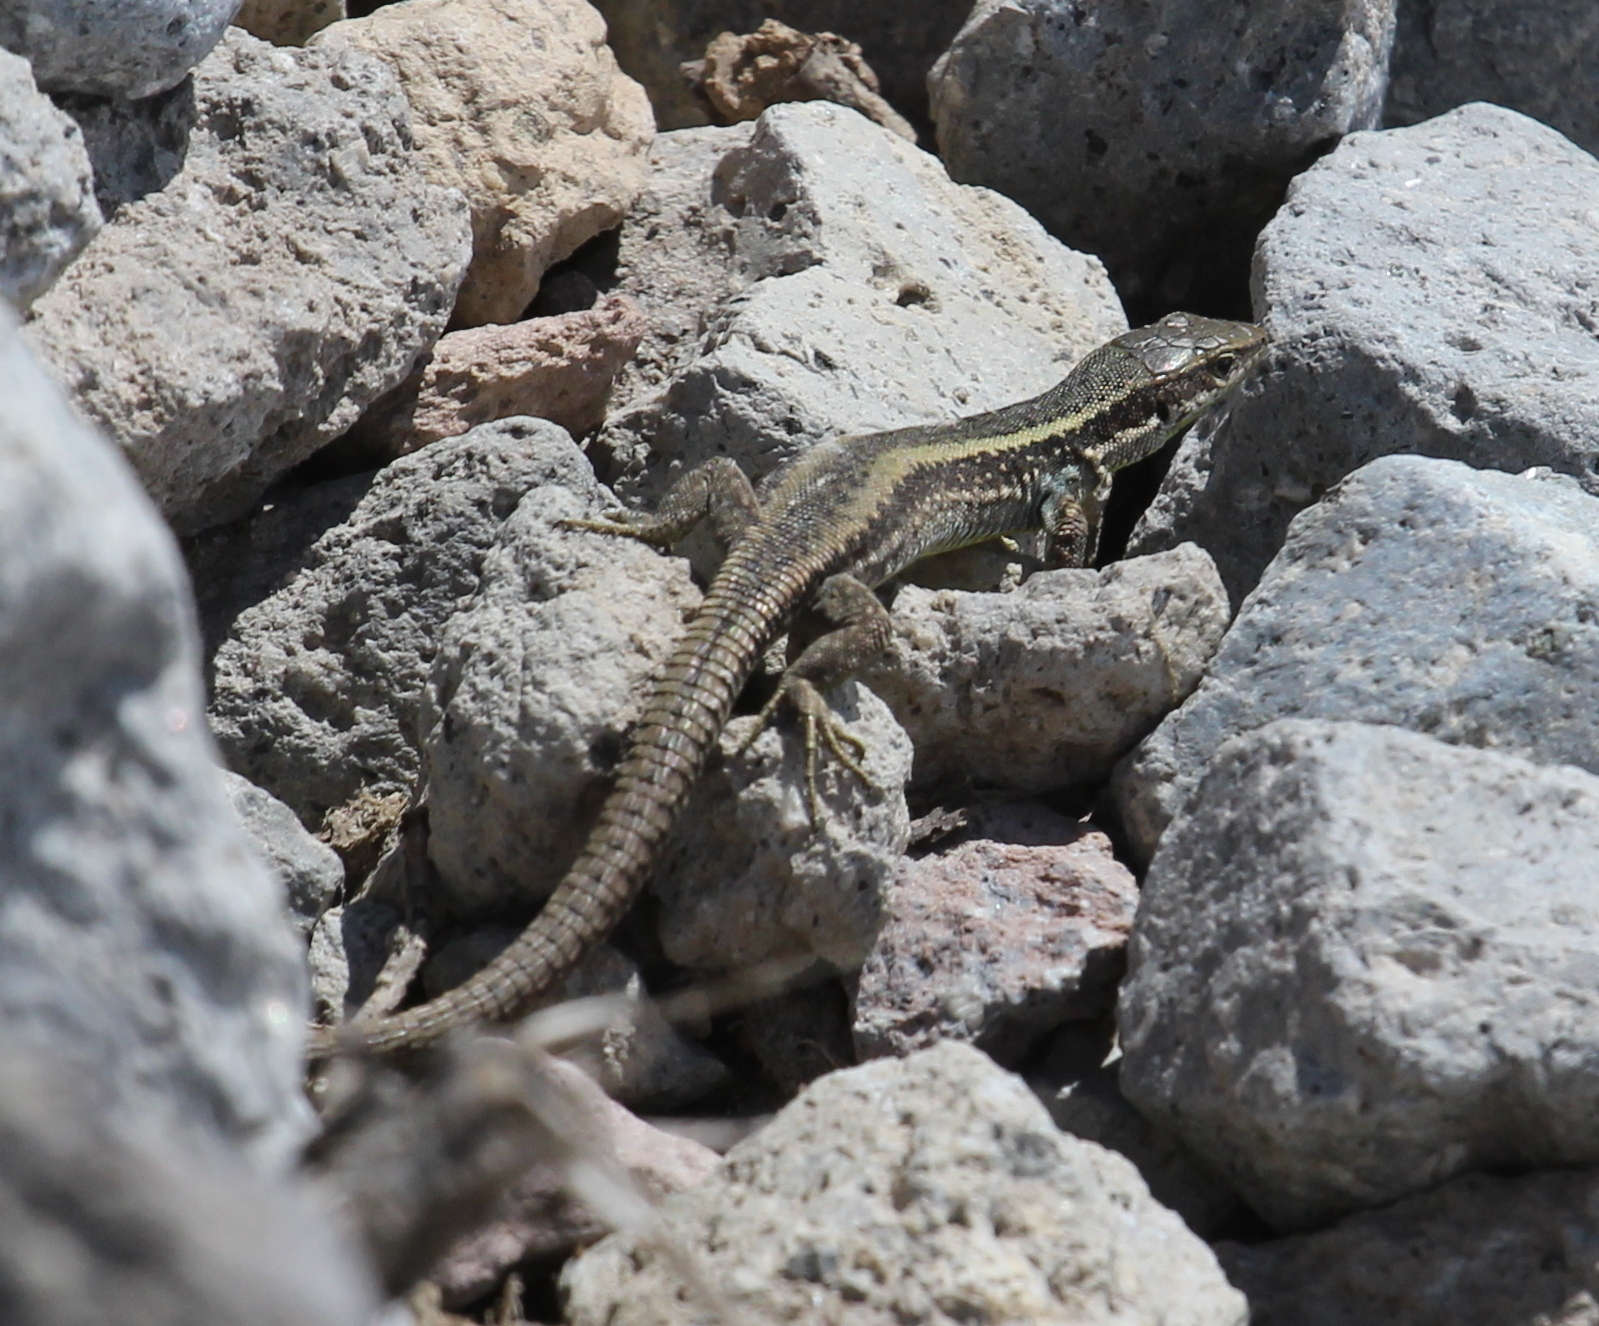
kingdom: Animalia
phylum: Chordata
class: Squamata
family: Lacertidae
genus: Darevskia
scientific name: Darevskia caucasica
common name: Caucasian llzard
